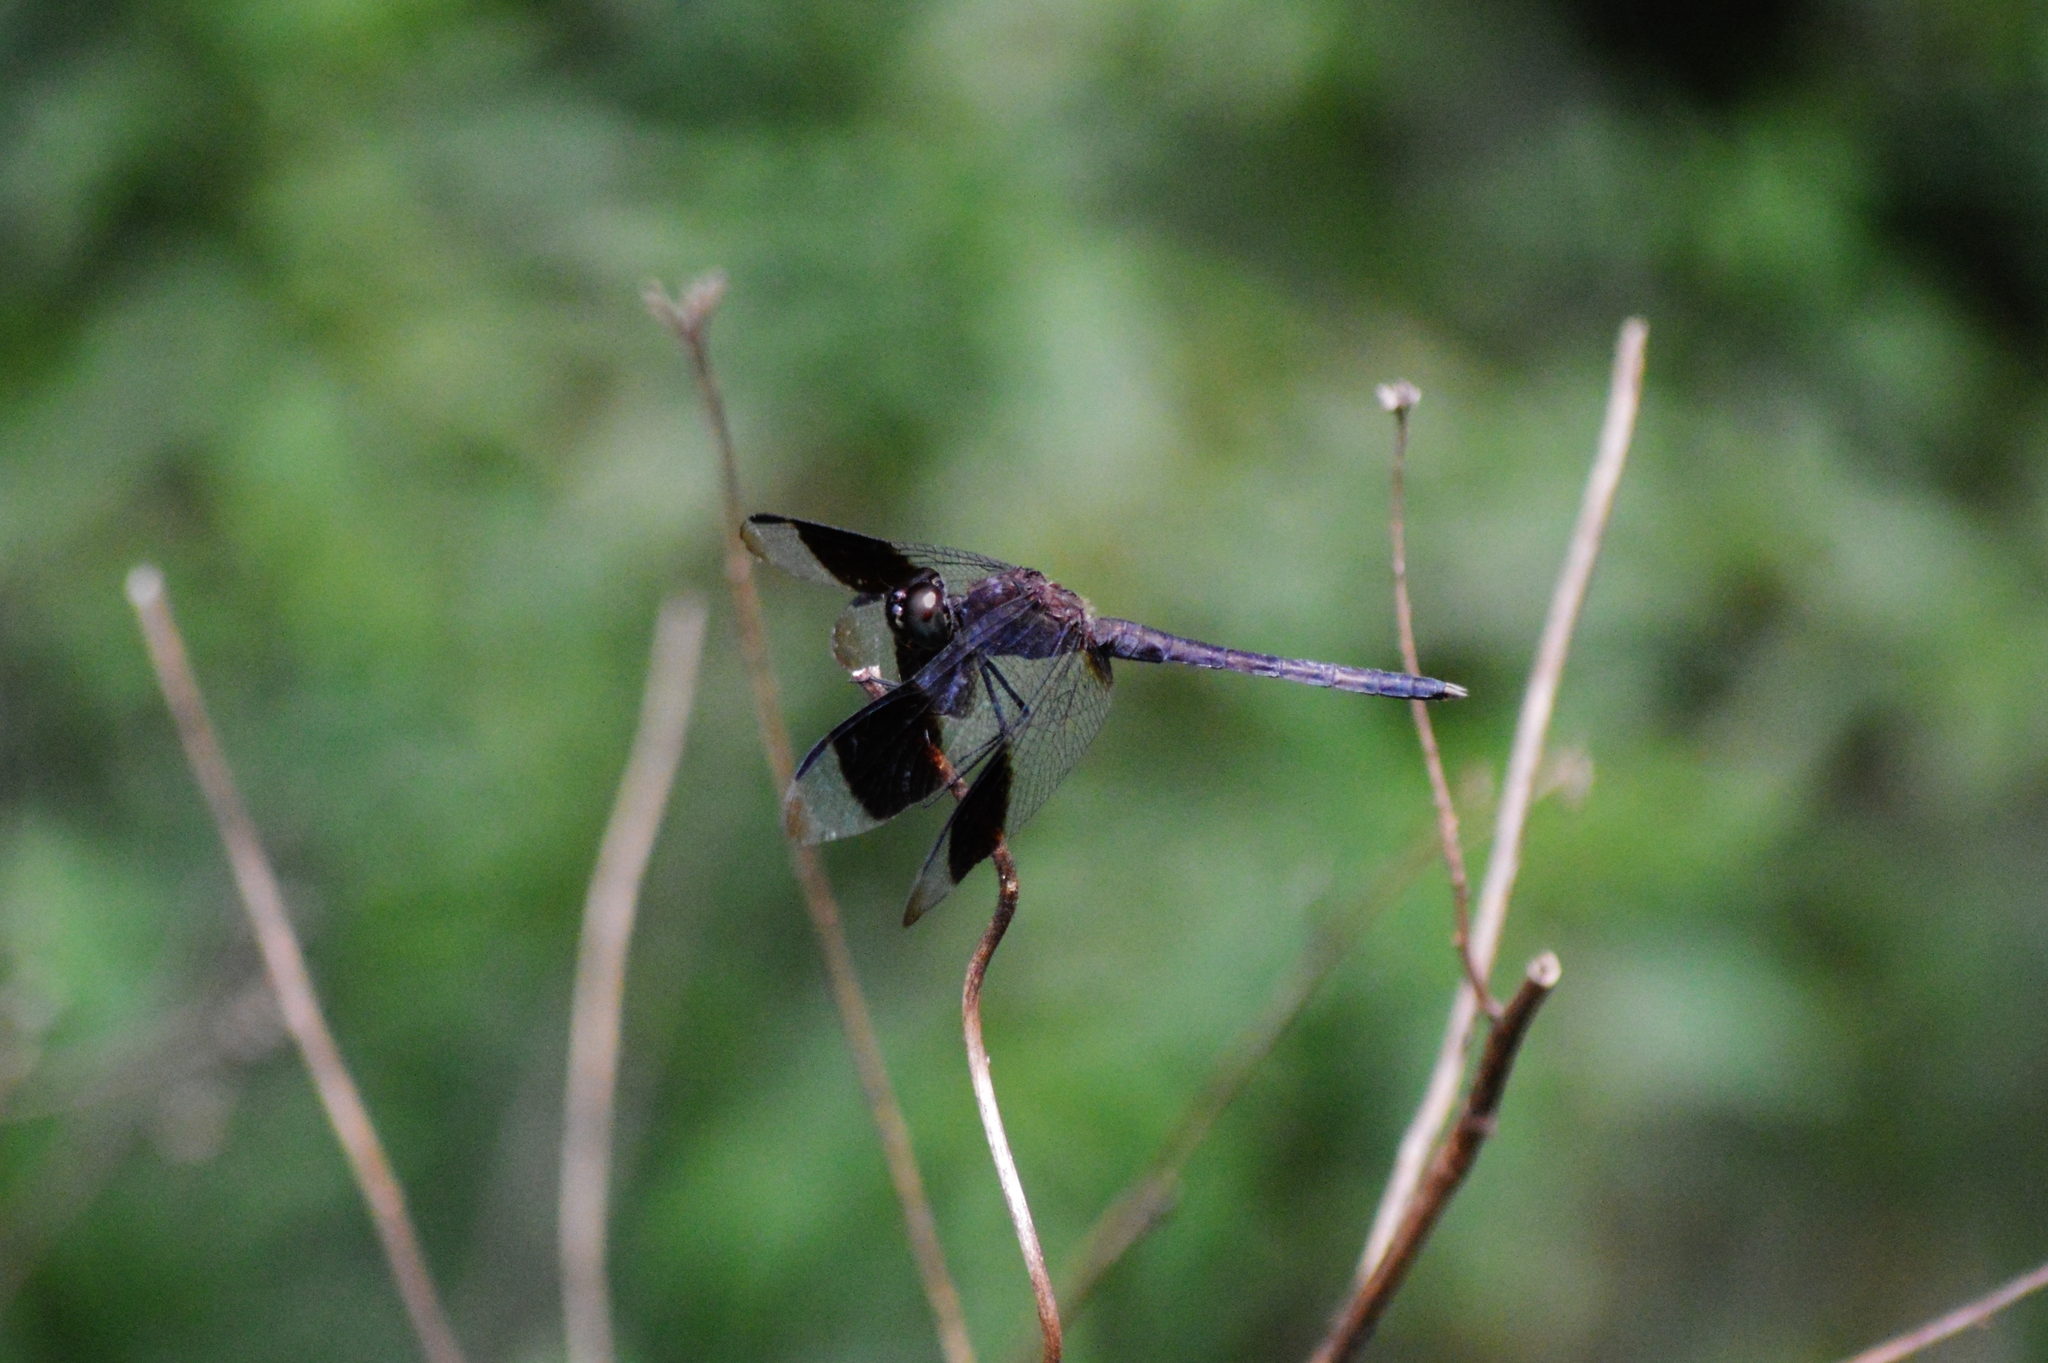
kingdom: Animalia
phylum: Arthropoda
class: Insecta
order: Odonata
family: Libellulidae
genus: Erythrodiplax
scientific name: Erythrodiplax umbrata
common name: Band-winged dragonlet
